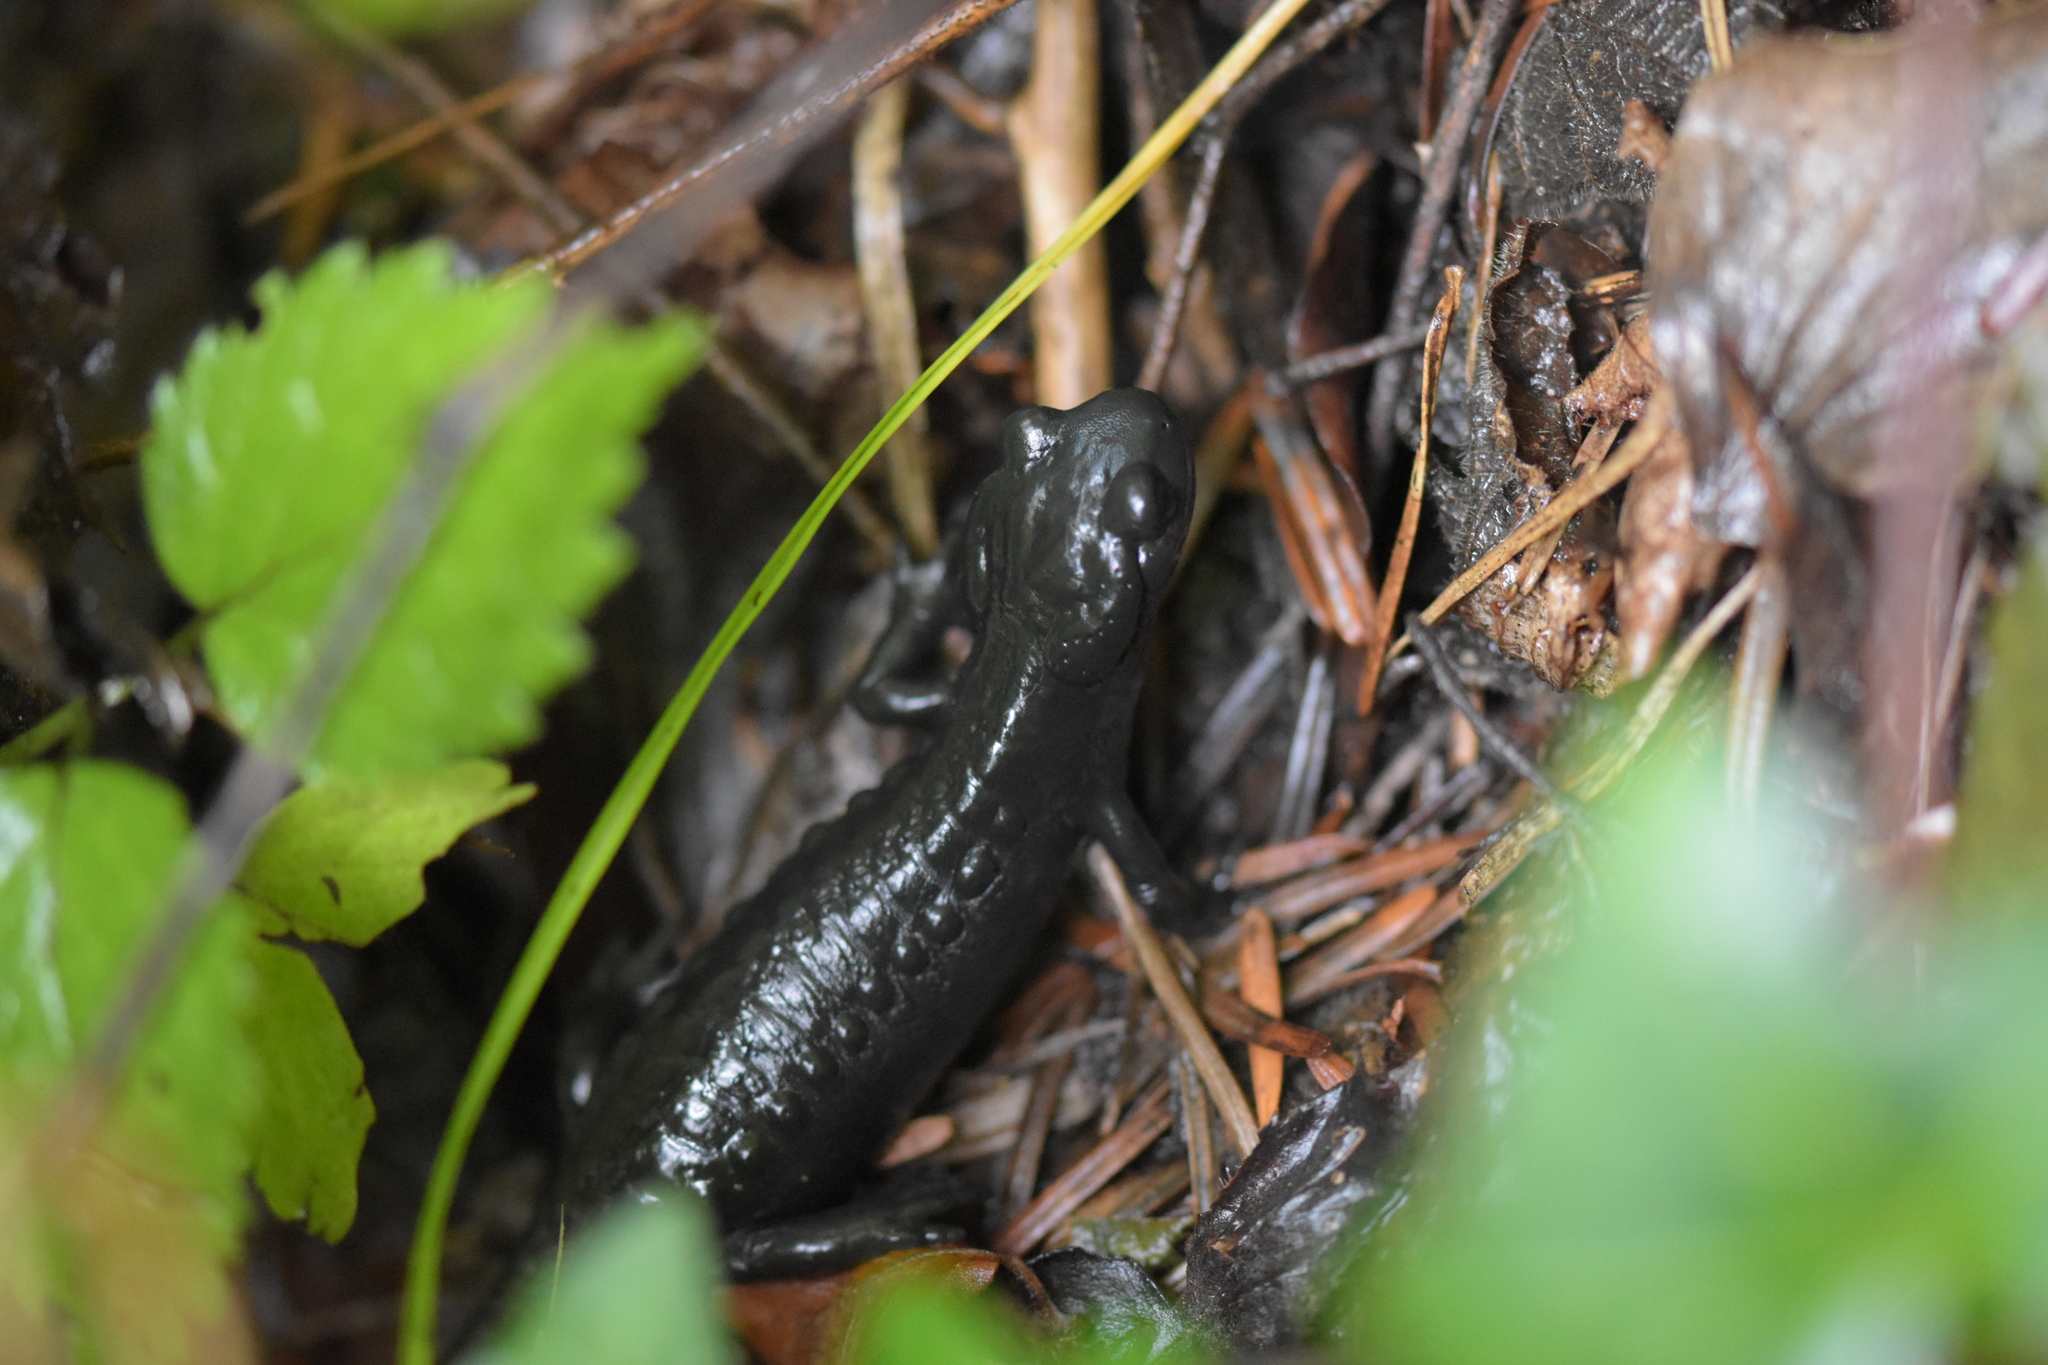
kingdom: Animalia
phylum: Chordata
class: Amphibia
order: Caudata
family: Salamandridae
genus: Salamandra
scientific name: Salamandra atra
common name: Alpine salamander
